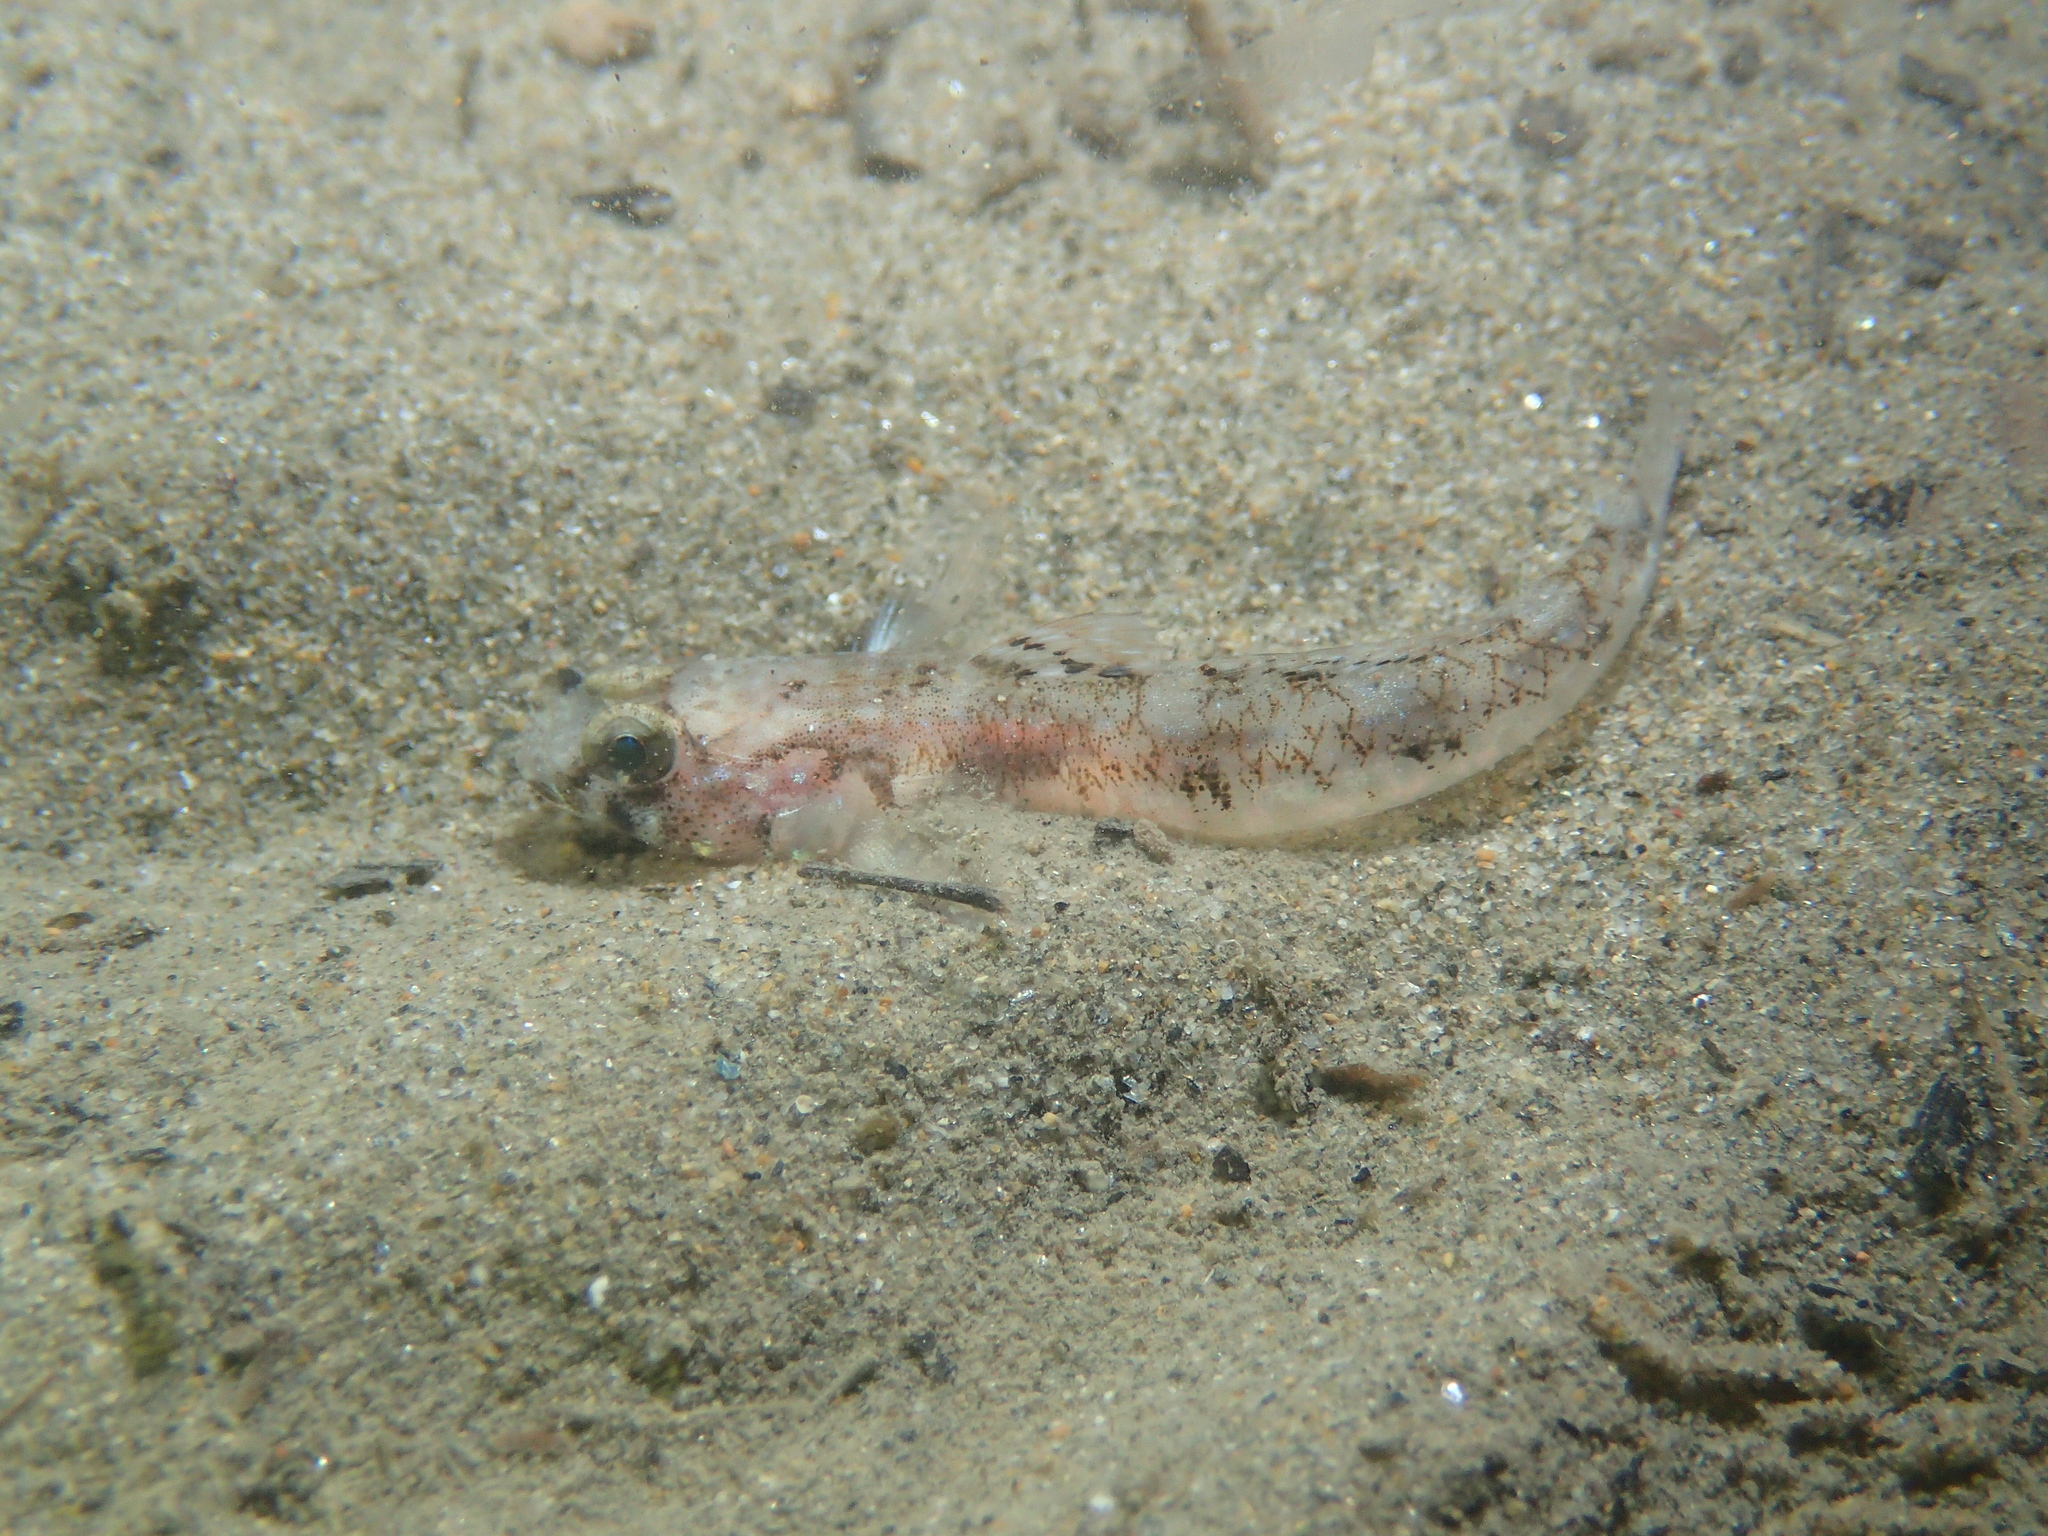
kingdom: Animalia
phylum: Chordata
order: Perciformes
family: Gobiidae
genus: Pomatoschistus
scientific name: Pomatoschistus pictus
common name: Painted goby
